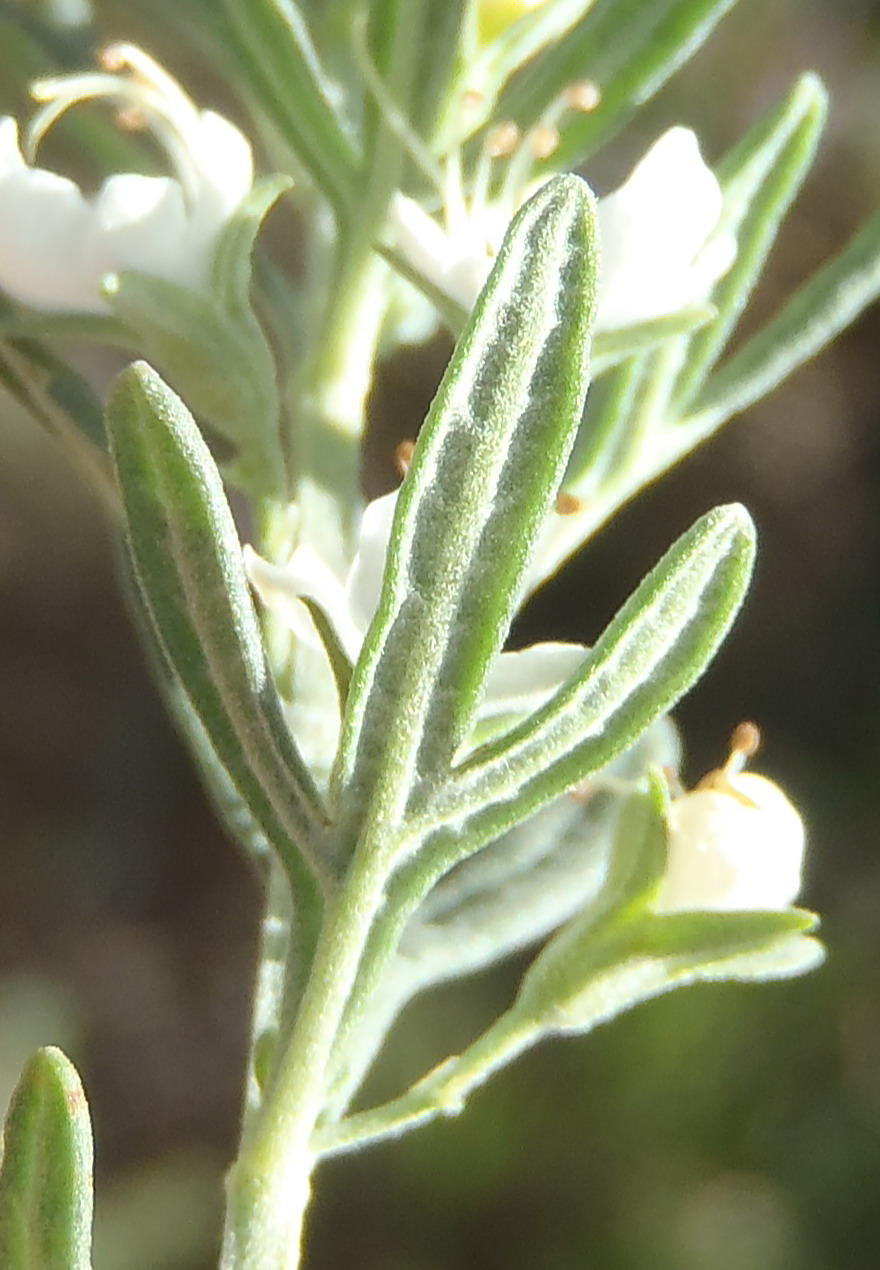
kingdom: Plantae
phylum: Tracheophyta
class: Magnoliopsida
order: Lamiales
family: Lamiaceae
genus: Teucrium
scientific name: Teucrium africanum
